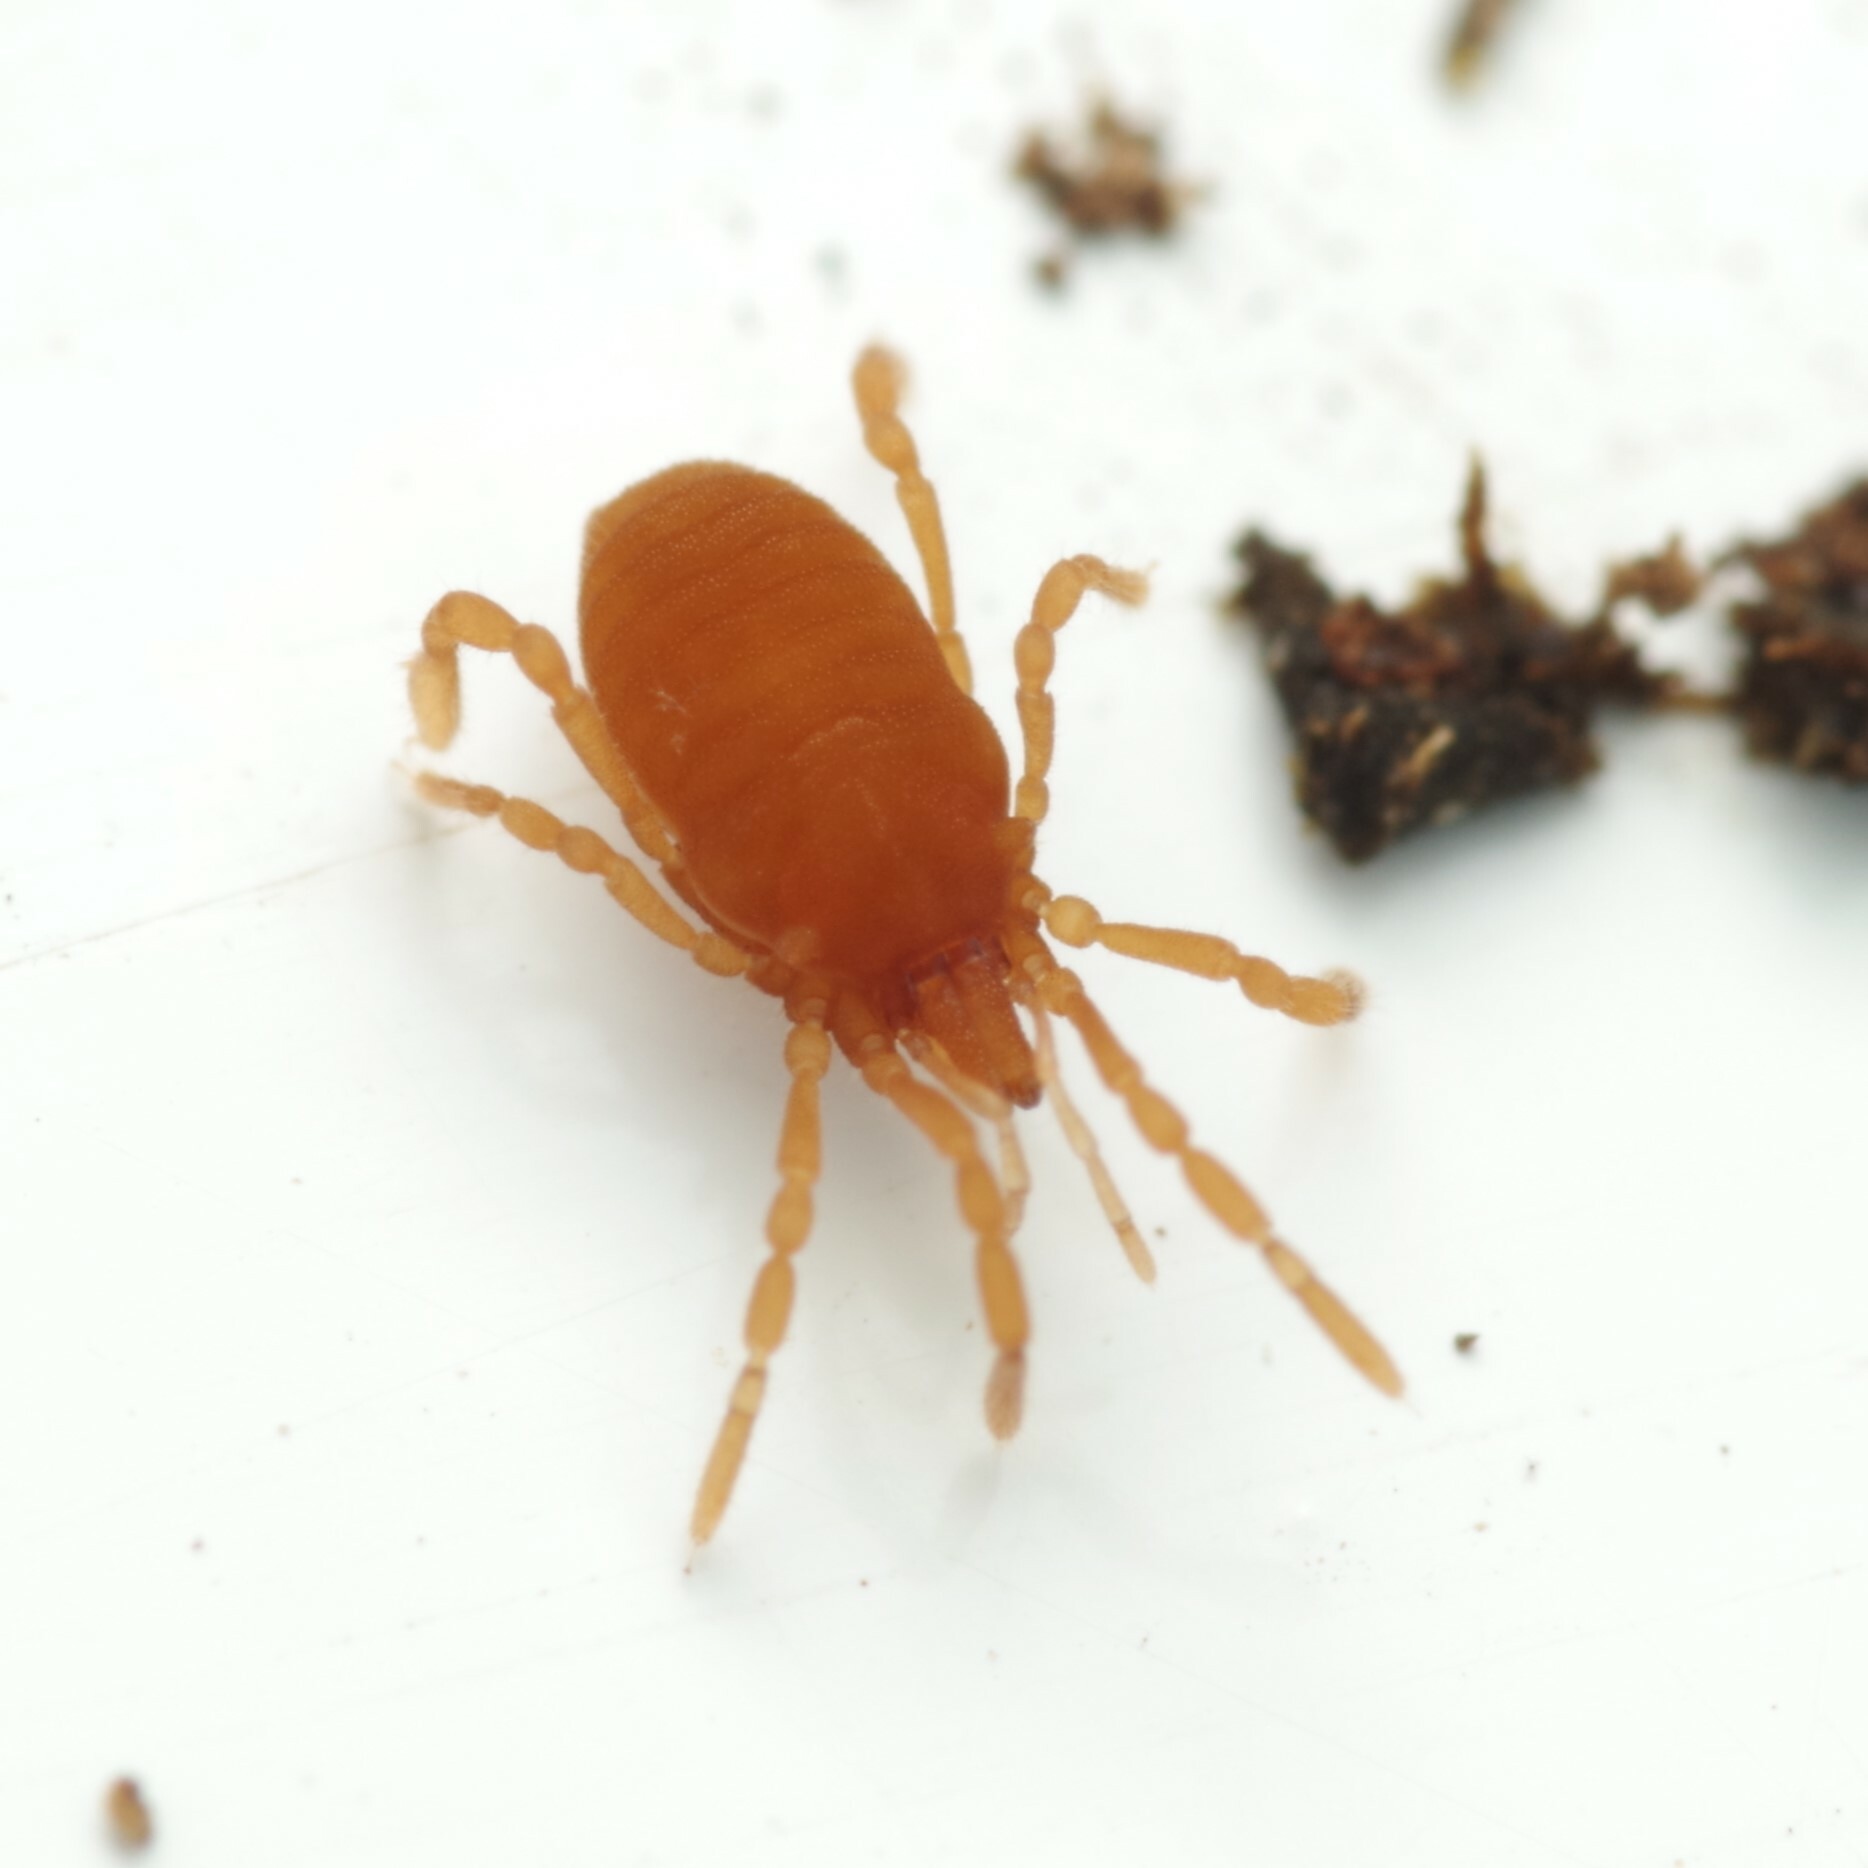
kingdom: Animalia
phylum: Arthropoda
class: Arachnida
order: Opiliones
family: Sironidae
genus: Siro
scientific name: Siro rubens
